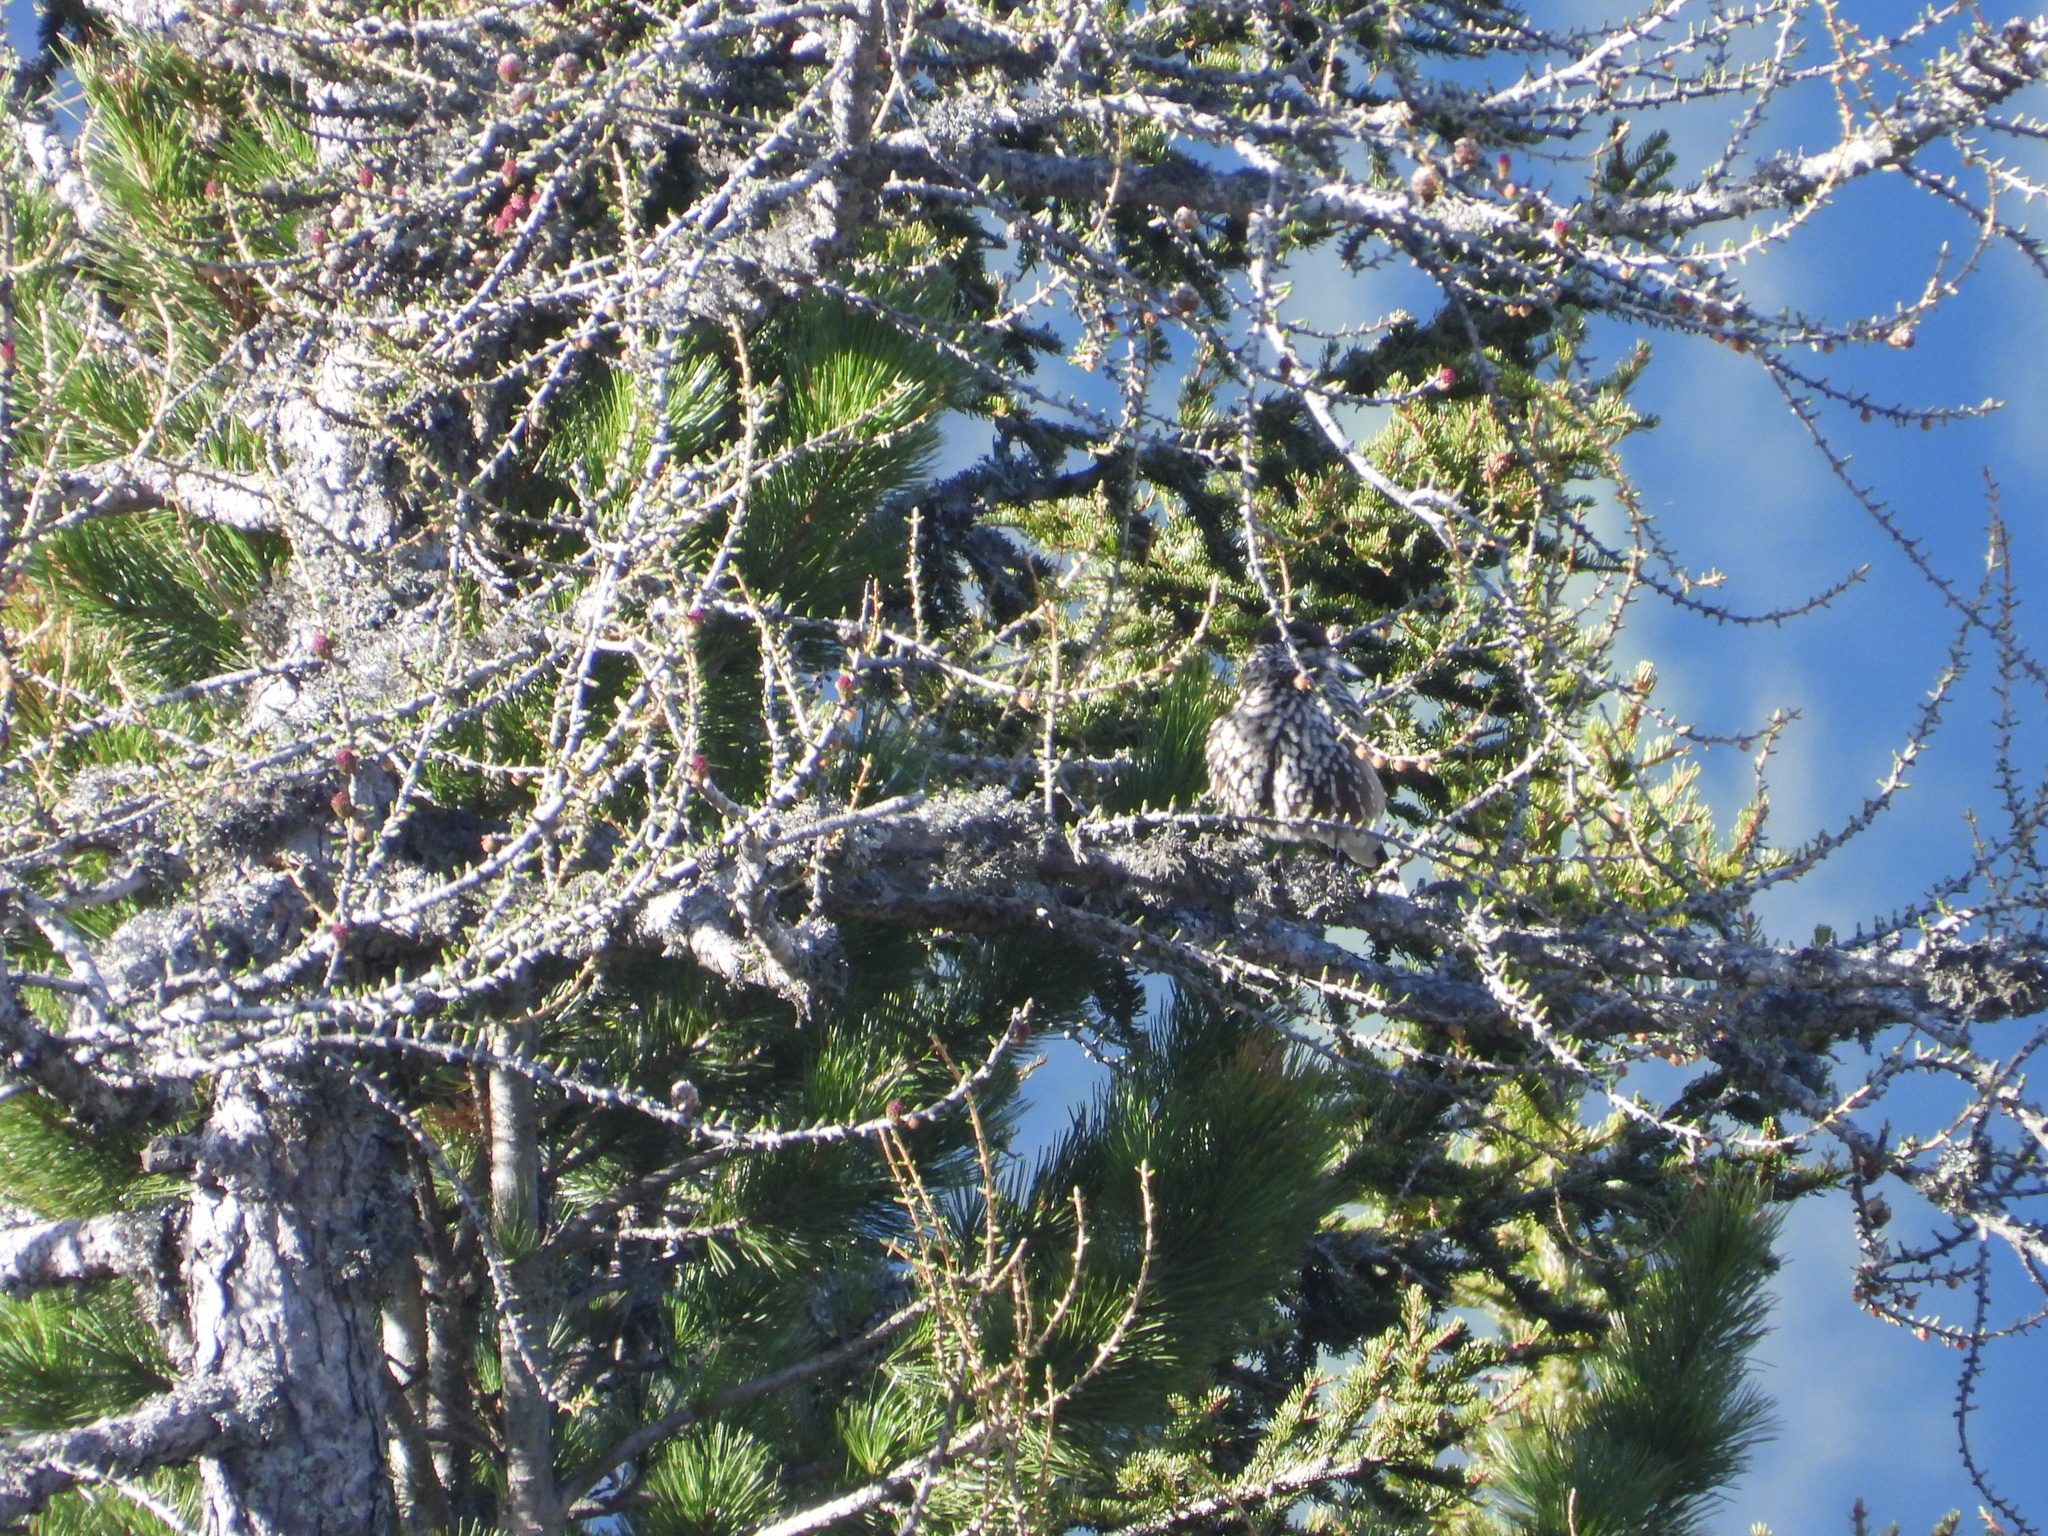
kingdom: Animalia
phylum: Chordata
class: Aves
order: Passeriformes
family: Corvidae
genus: Nucifraga
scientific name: Nucifraga caryocatactes
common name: Spotted nutcracker
